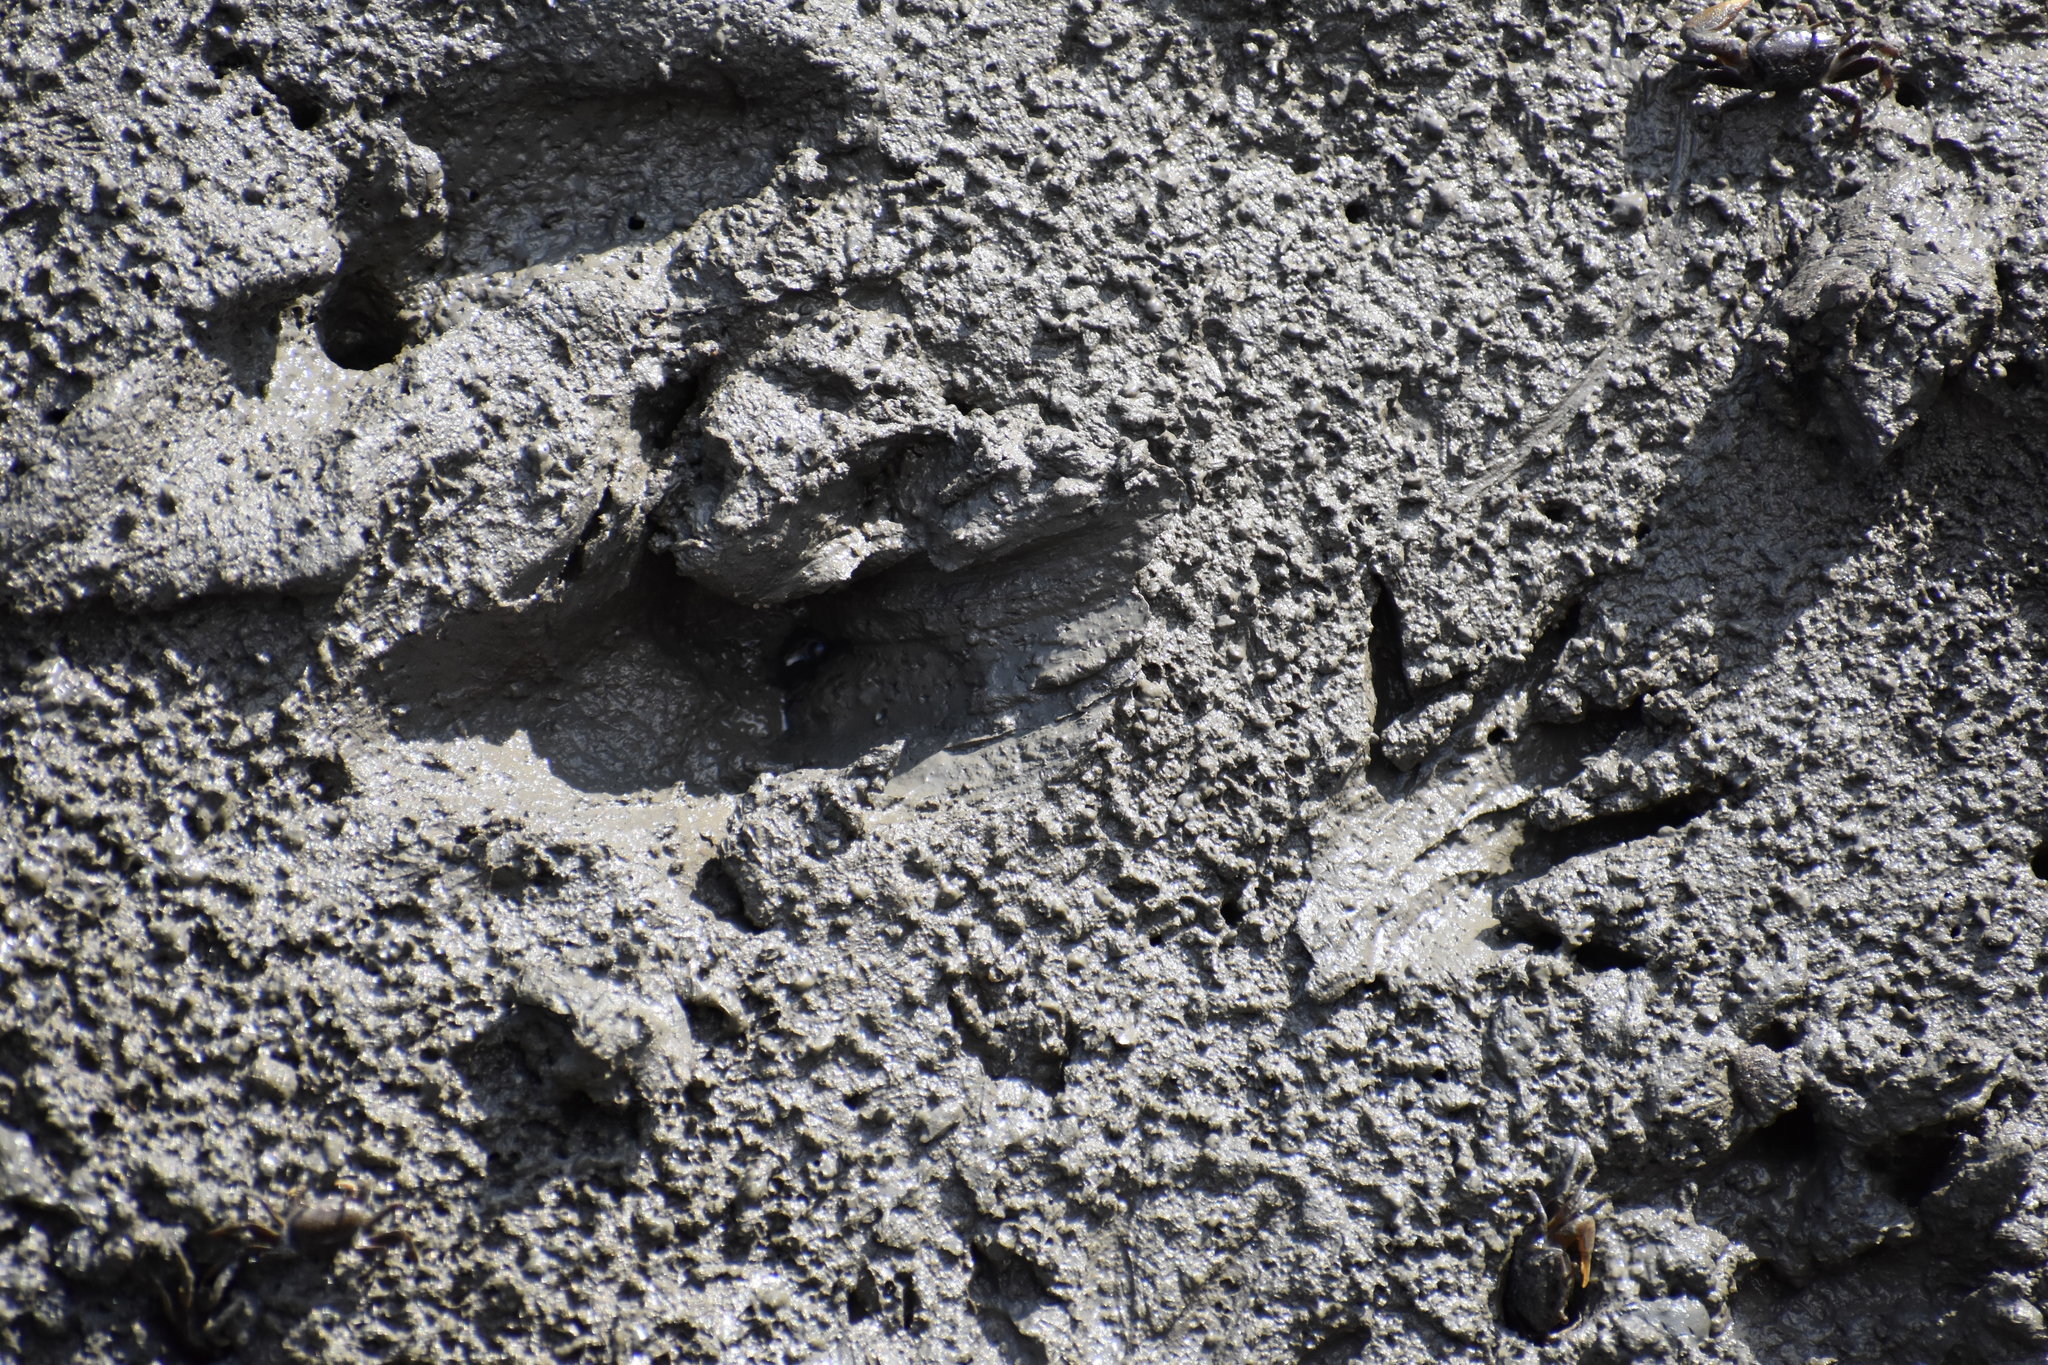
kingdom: Animalia
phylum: Chordata
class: Mammalia
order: Carnivora
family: Procyonidae
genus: Procyon
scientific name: Procyon lotor
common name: Raccoon
